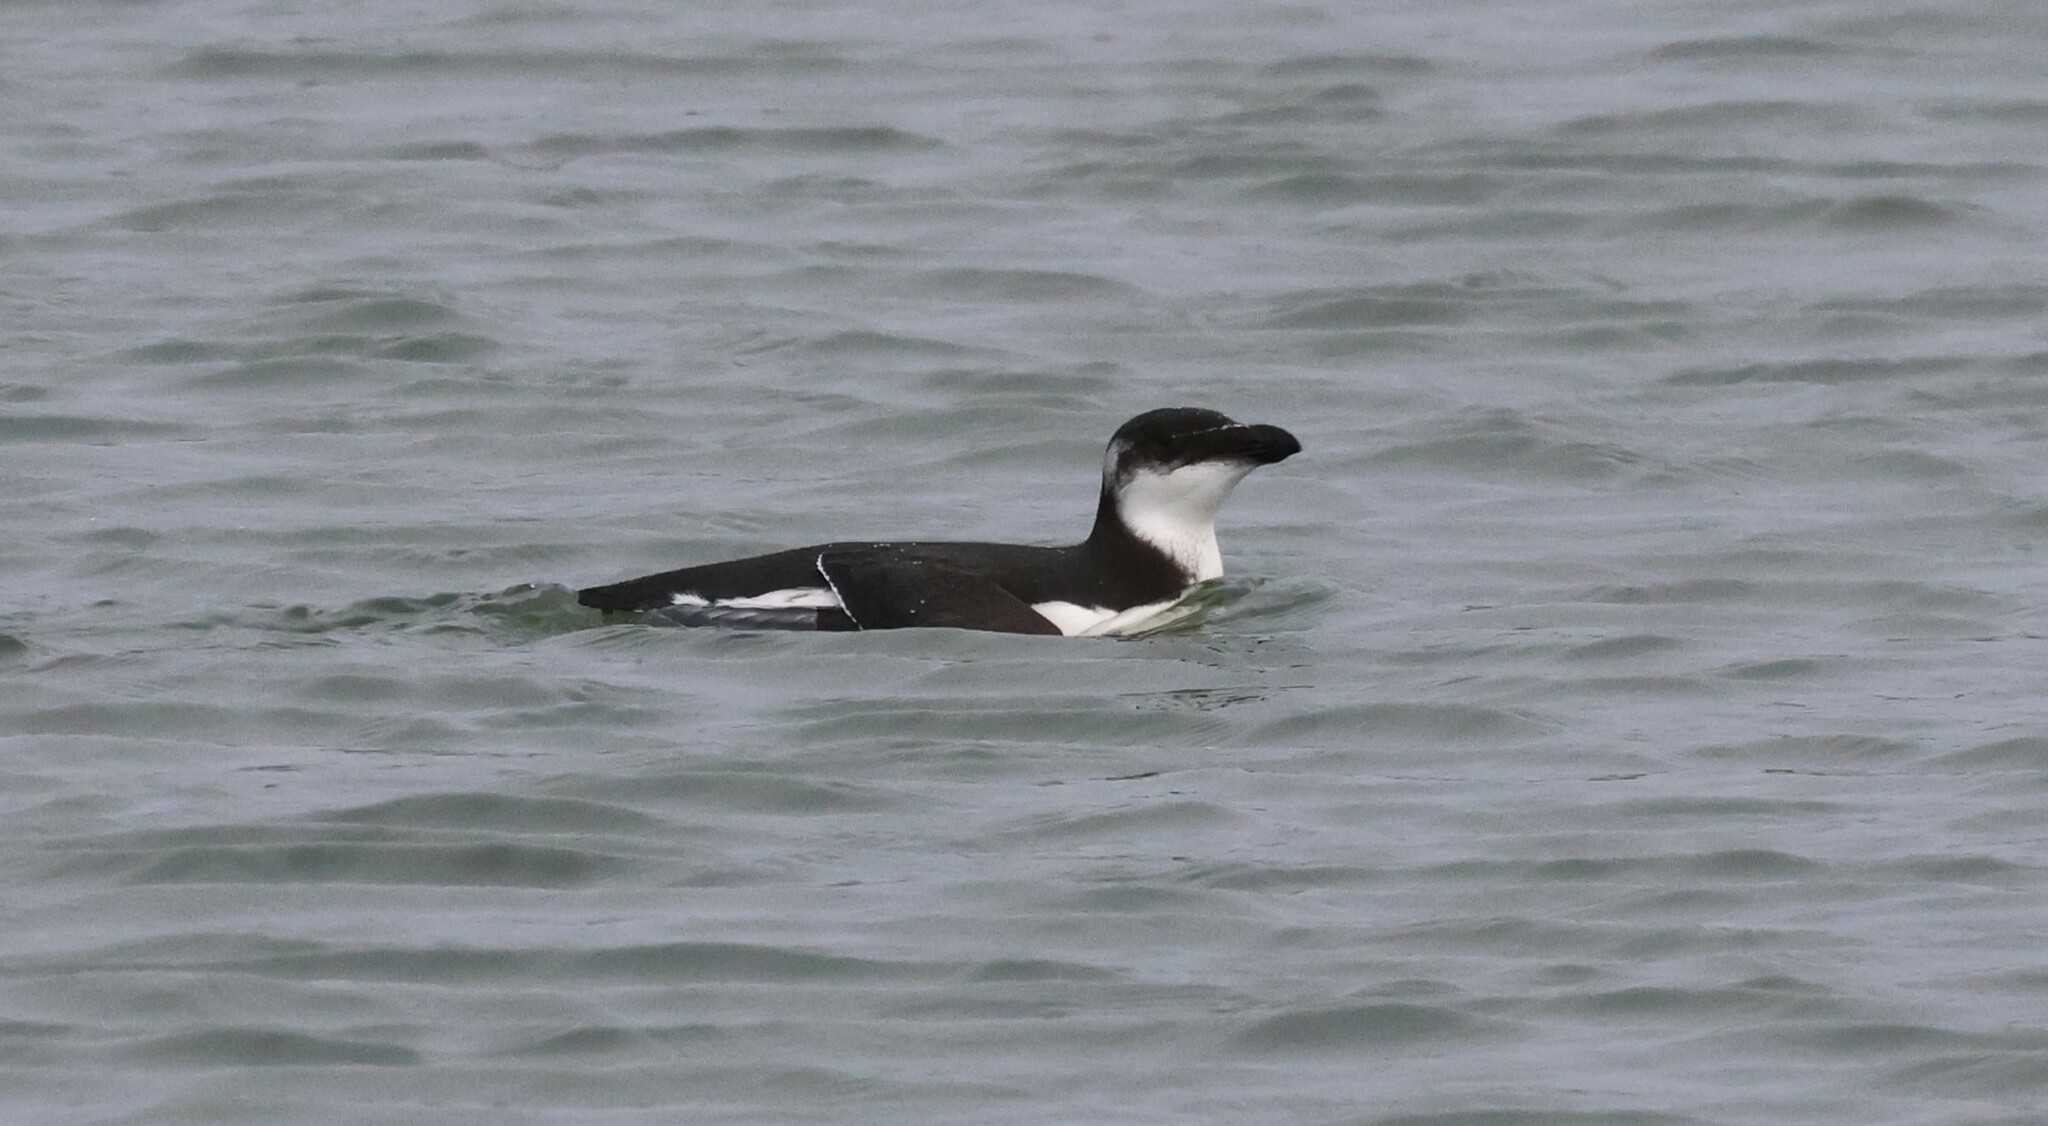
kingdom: Animalia
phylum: Chordata
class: Aves
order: Charadriiformes
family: Alcidae
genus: Alca
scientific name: Alca torda
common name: Razorbill
